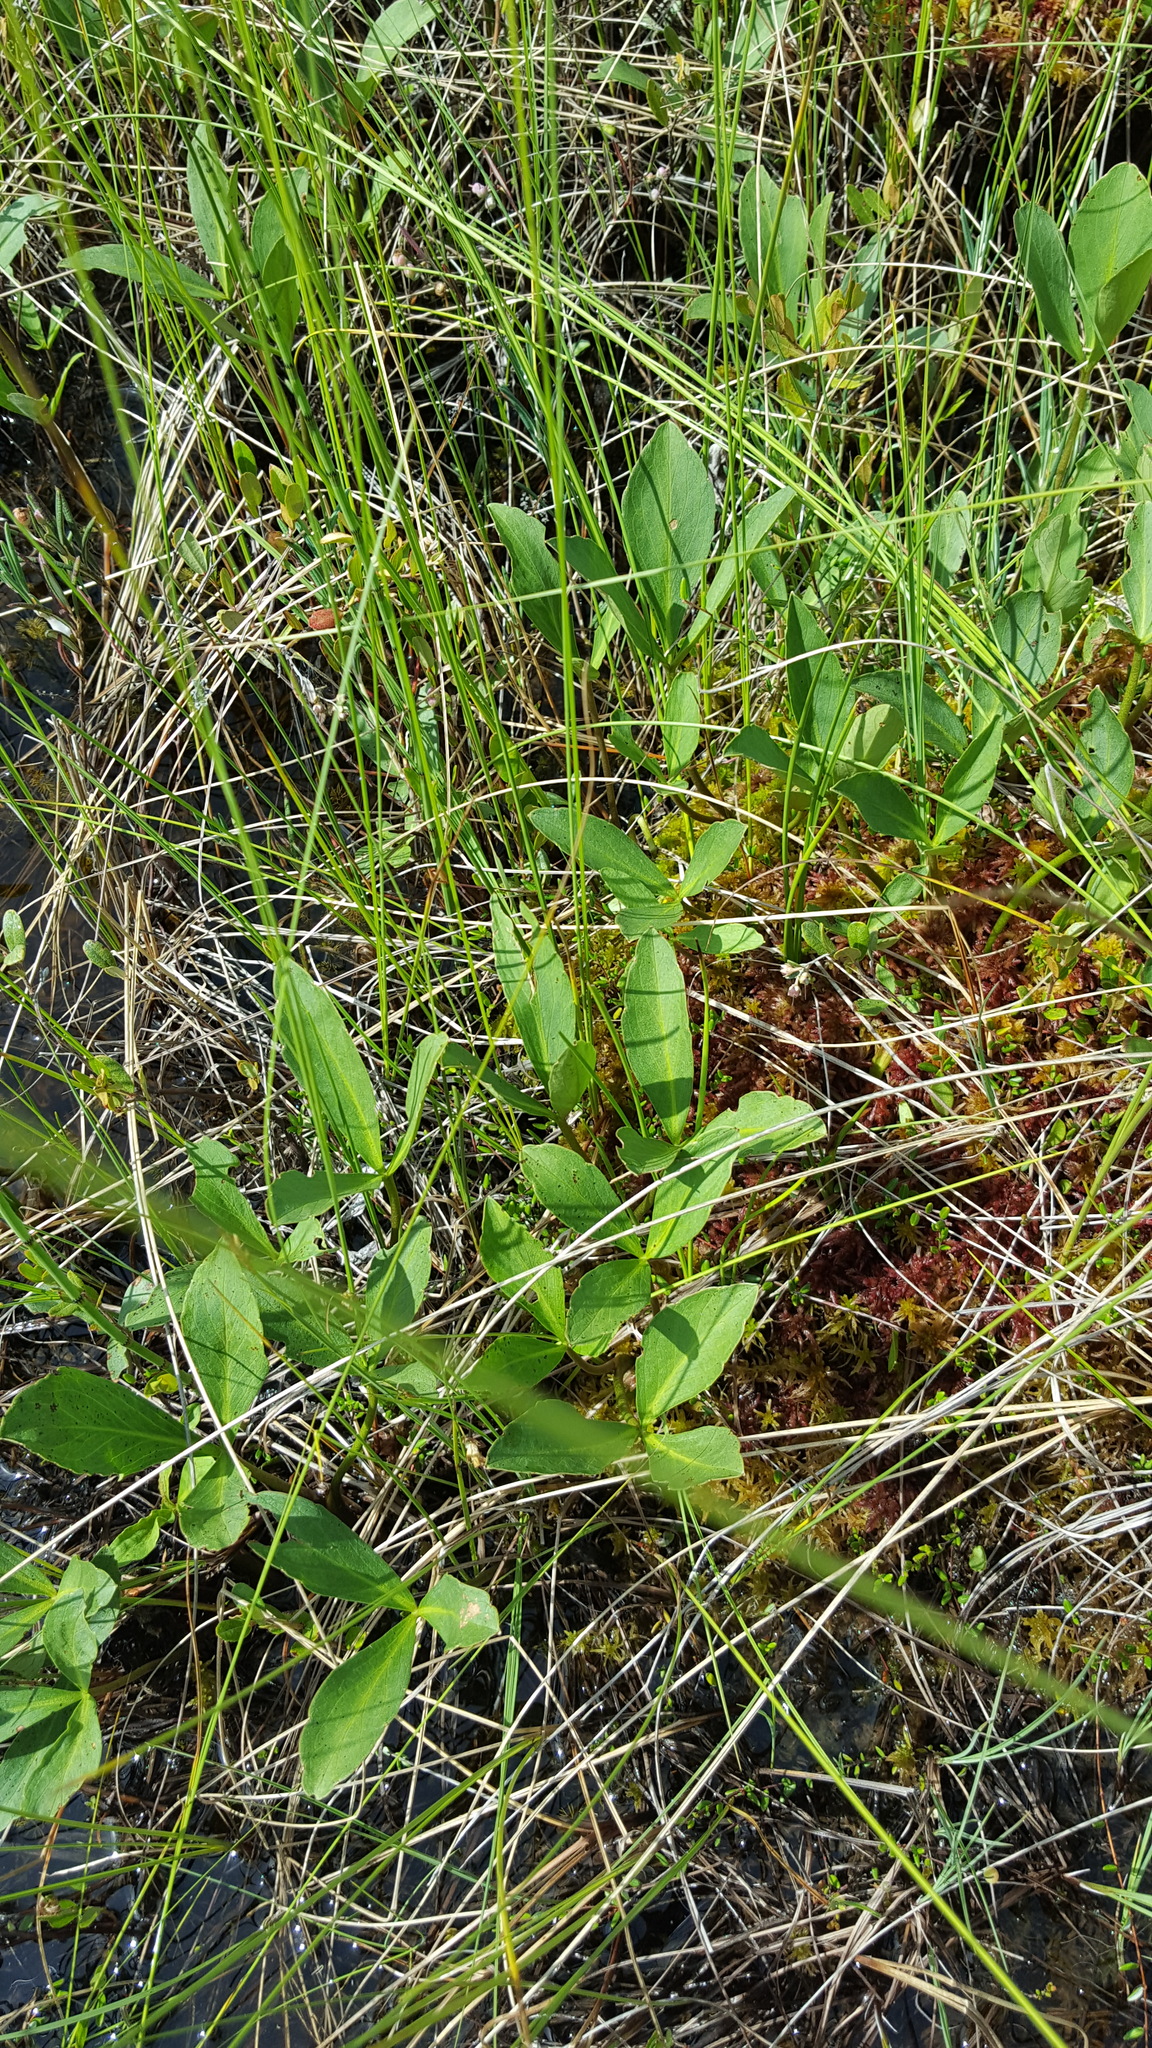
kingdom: Plantae
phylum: Tracheophyta
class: Magnoliopsida
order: Asterales
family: Menyanthaceae
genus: Menyanthes
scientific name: Menyanthes trifoliata
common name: Bogbean
